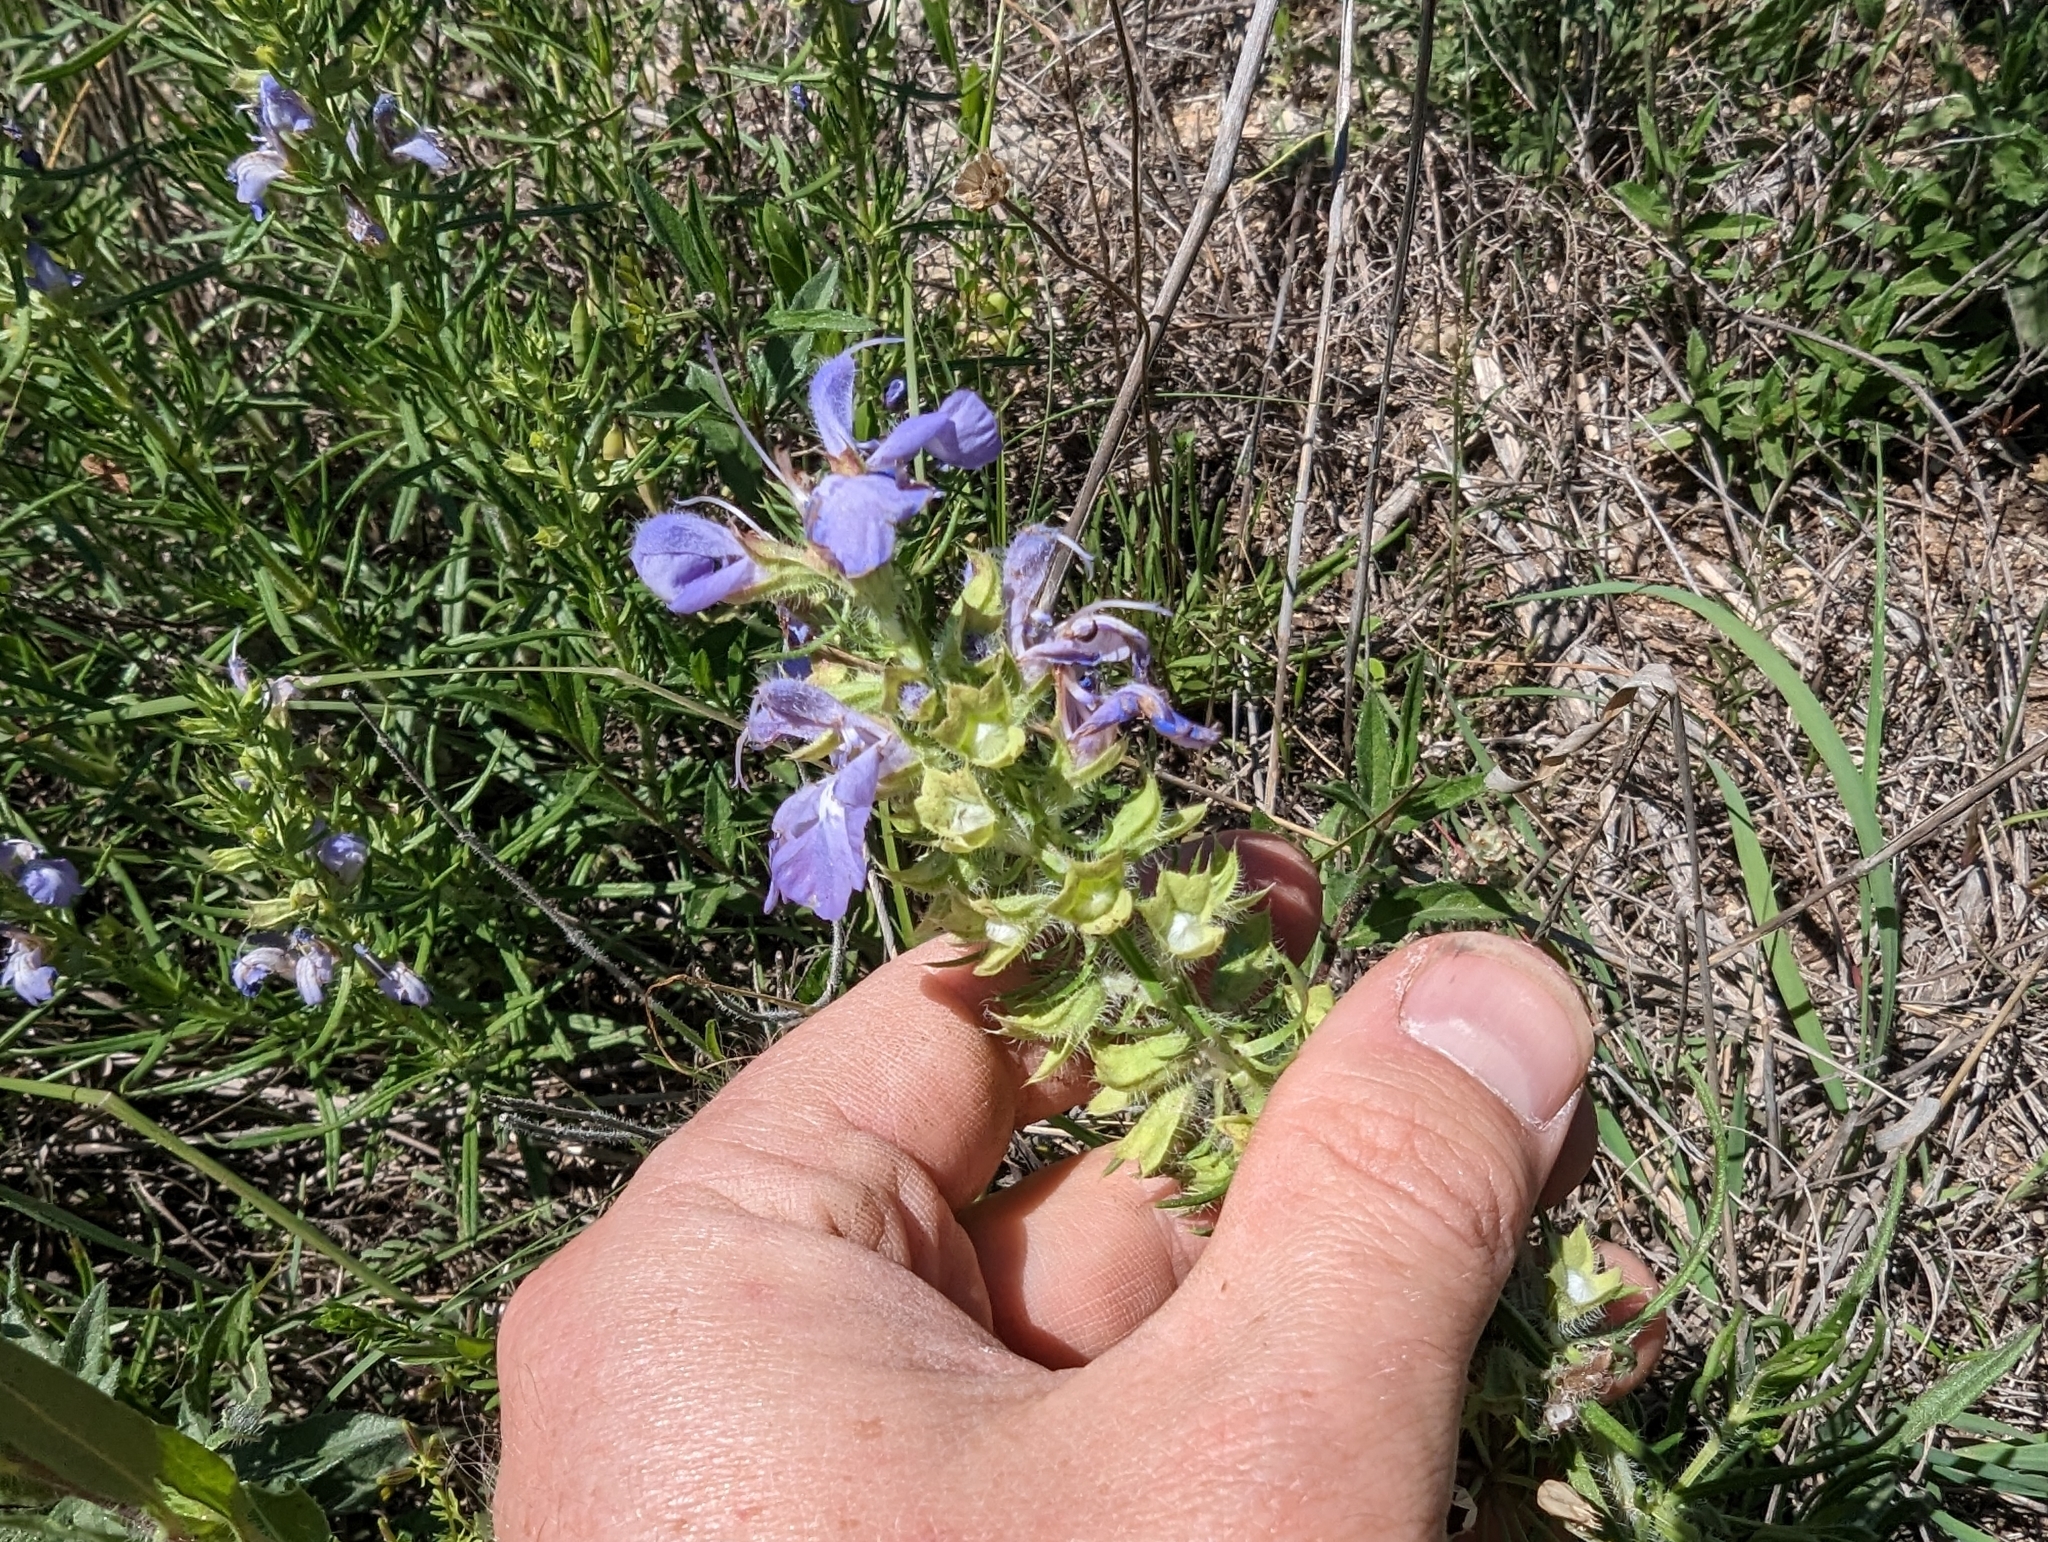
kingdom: Plantae
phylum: Tracheophyta
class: Magnoliopsida
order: Lamiales
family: Lamiaceae
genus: Salvia
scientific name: Salvia engelmannii
